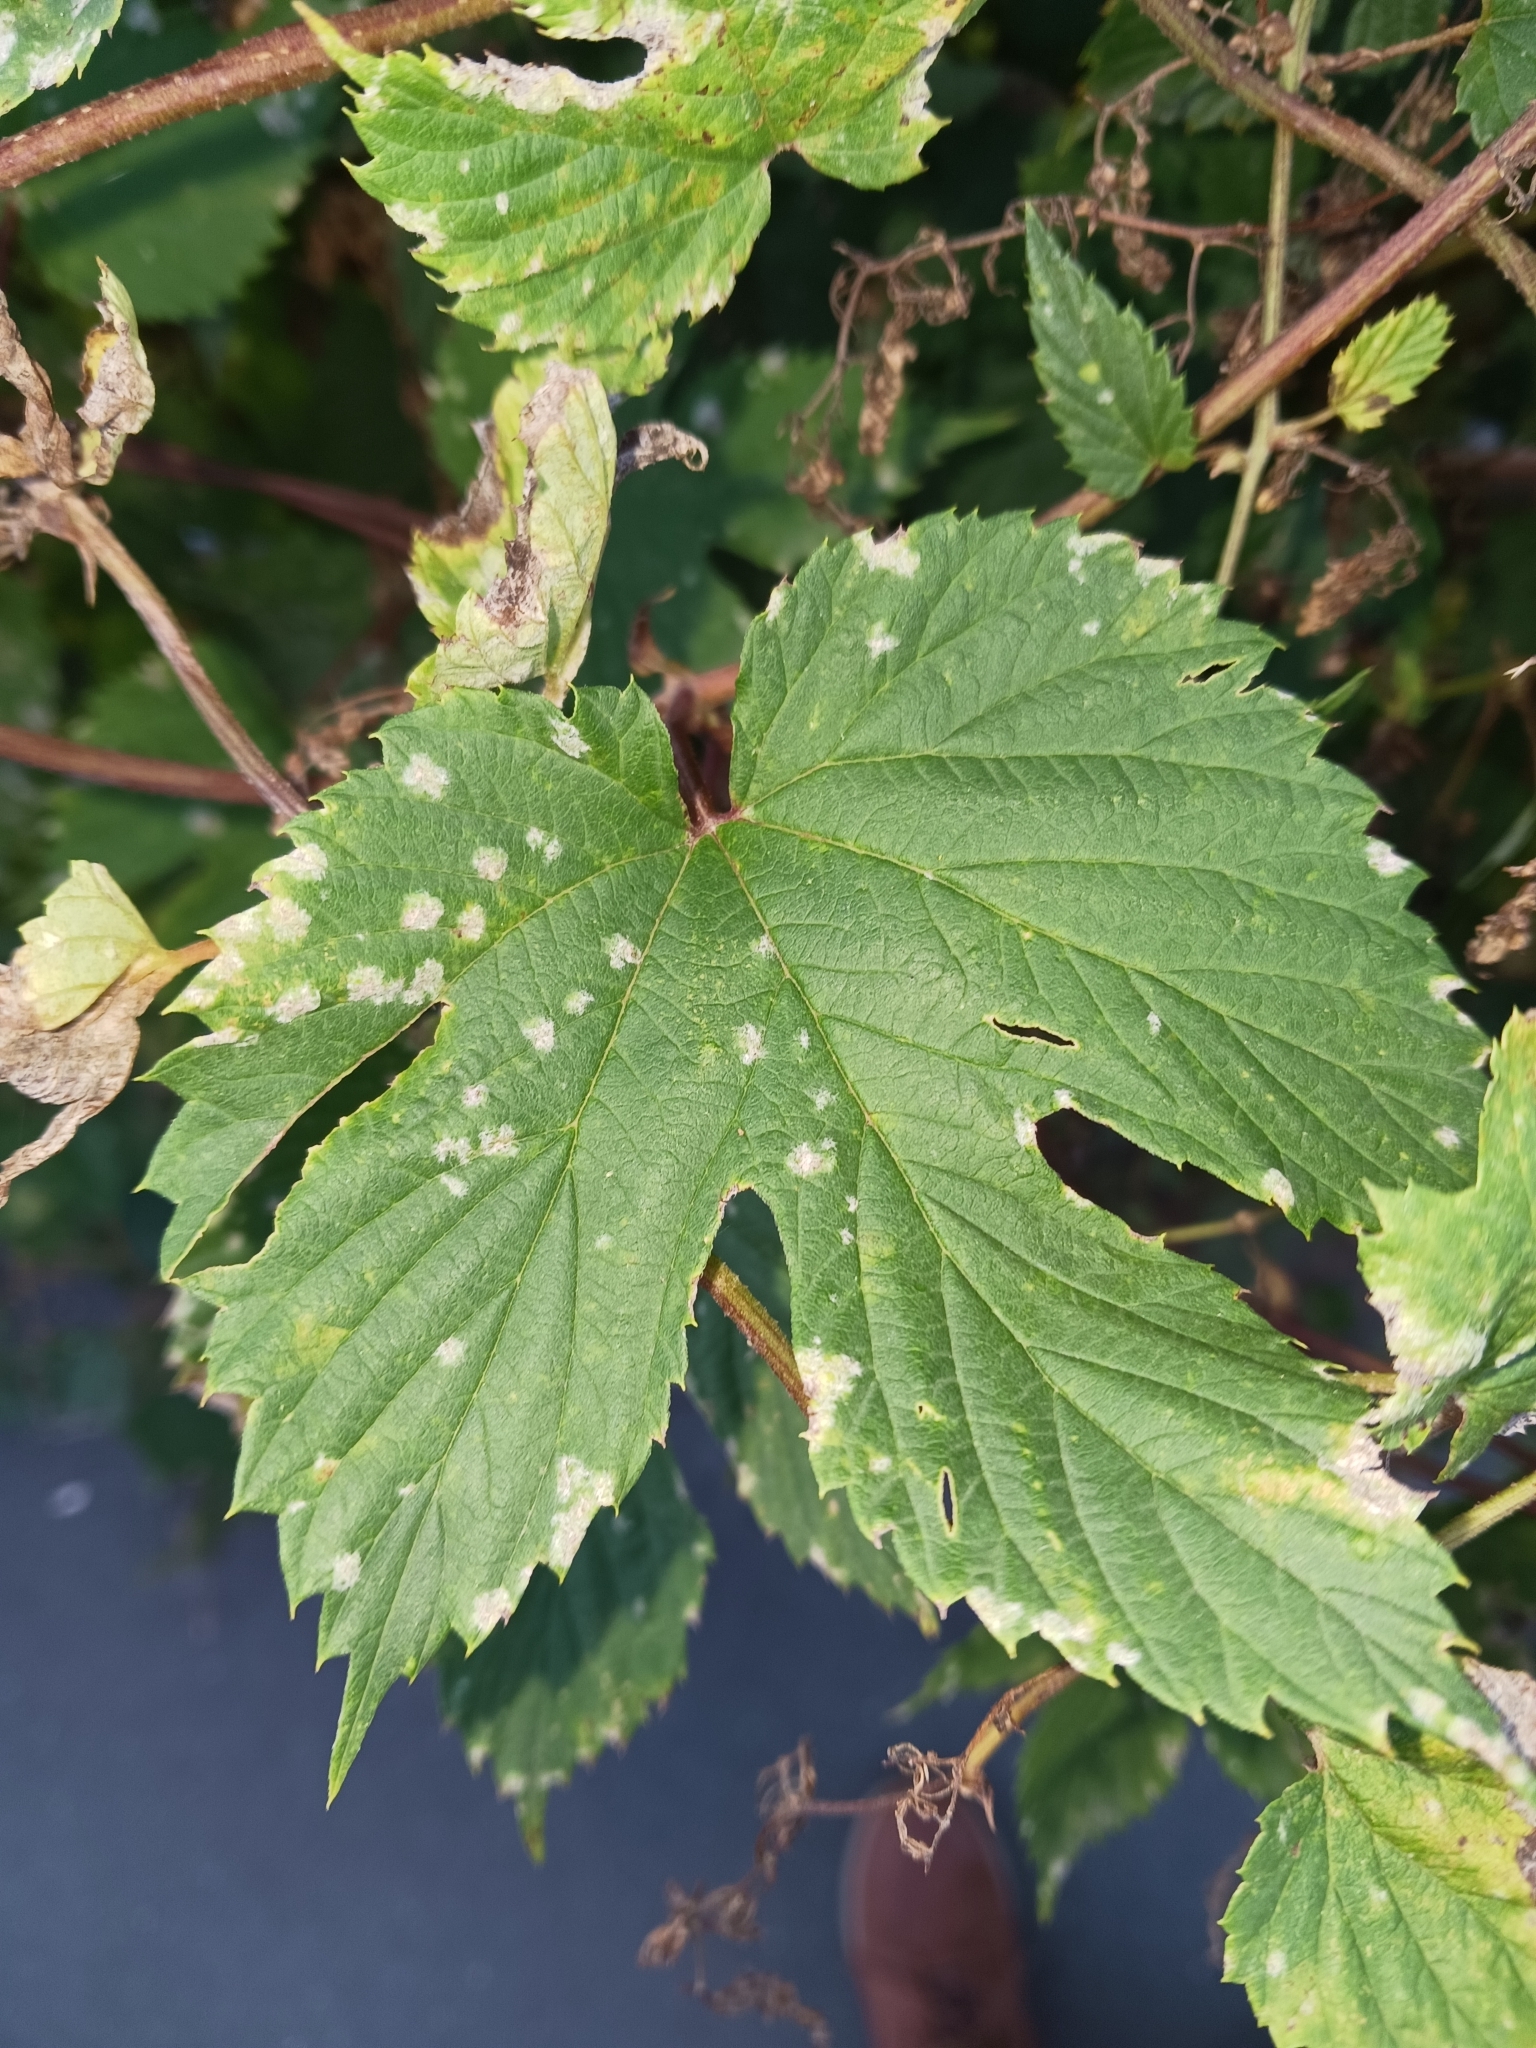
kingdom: Fungi
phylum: Ascomycota
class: Leotiomycetes
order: Helotiales
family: Erysiphaceae
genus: Podosphaera
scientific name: Podosphaera macularis
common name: Powdery mildew
